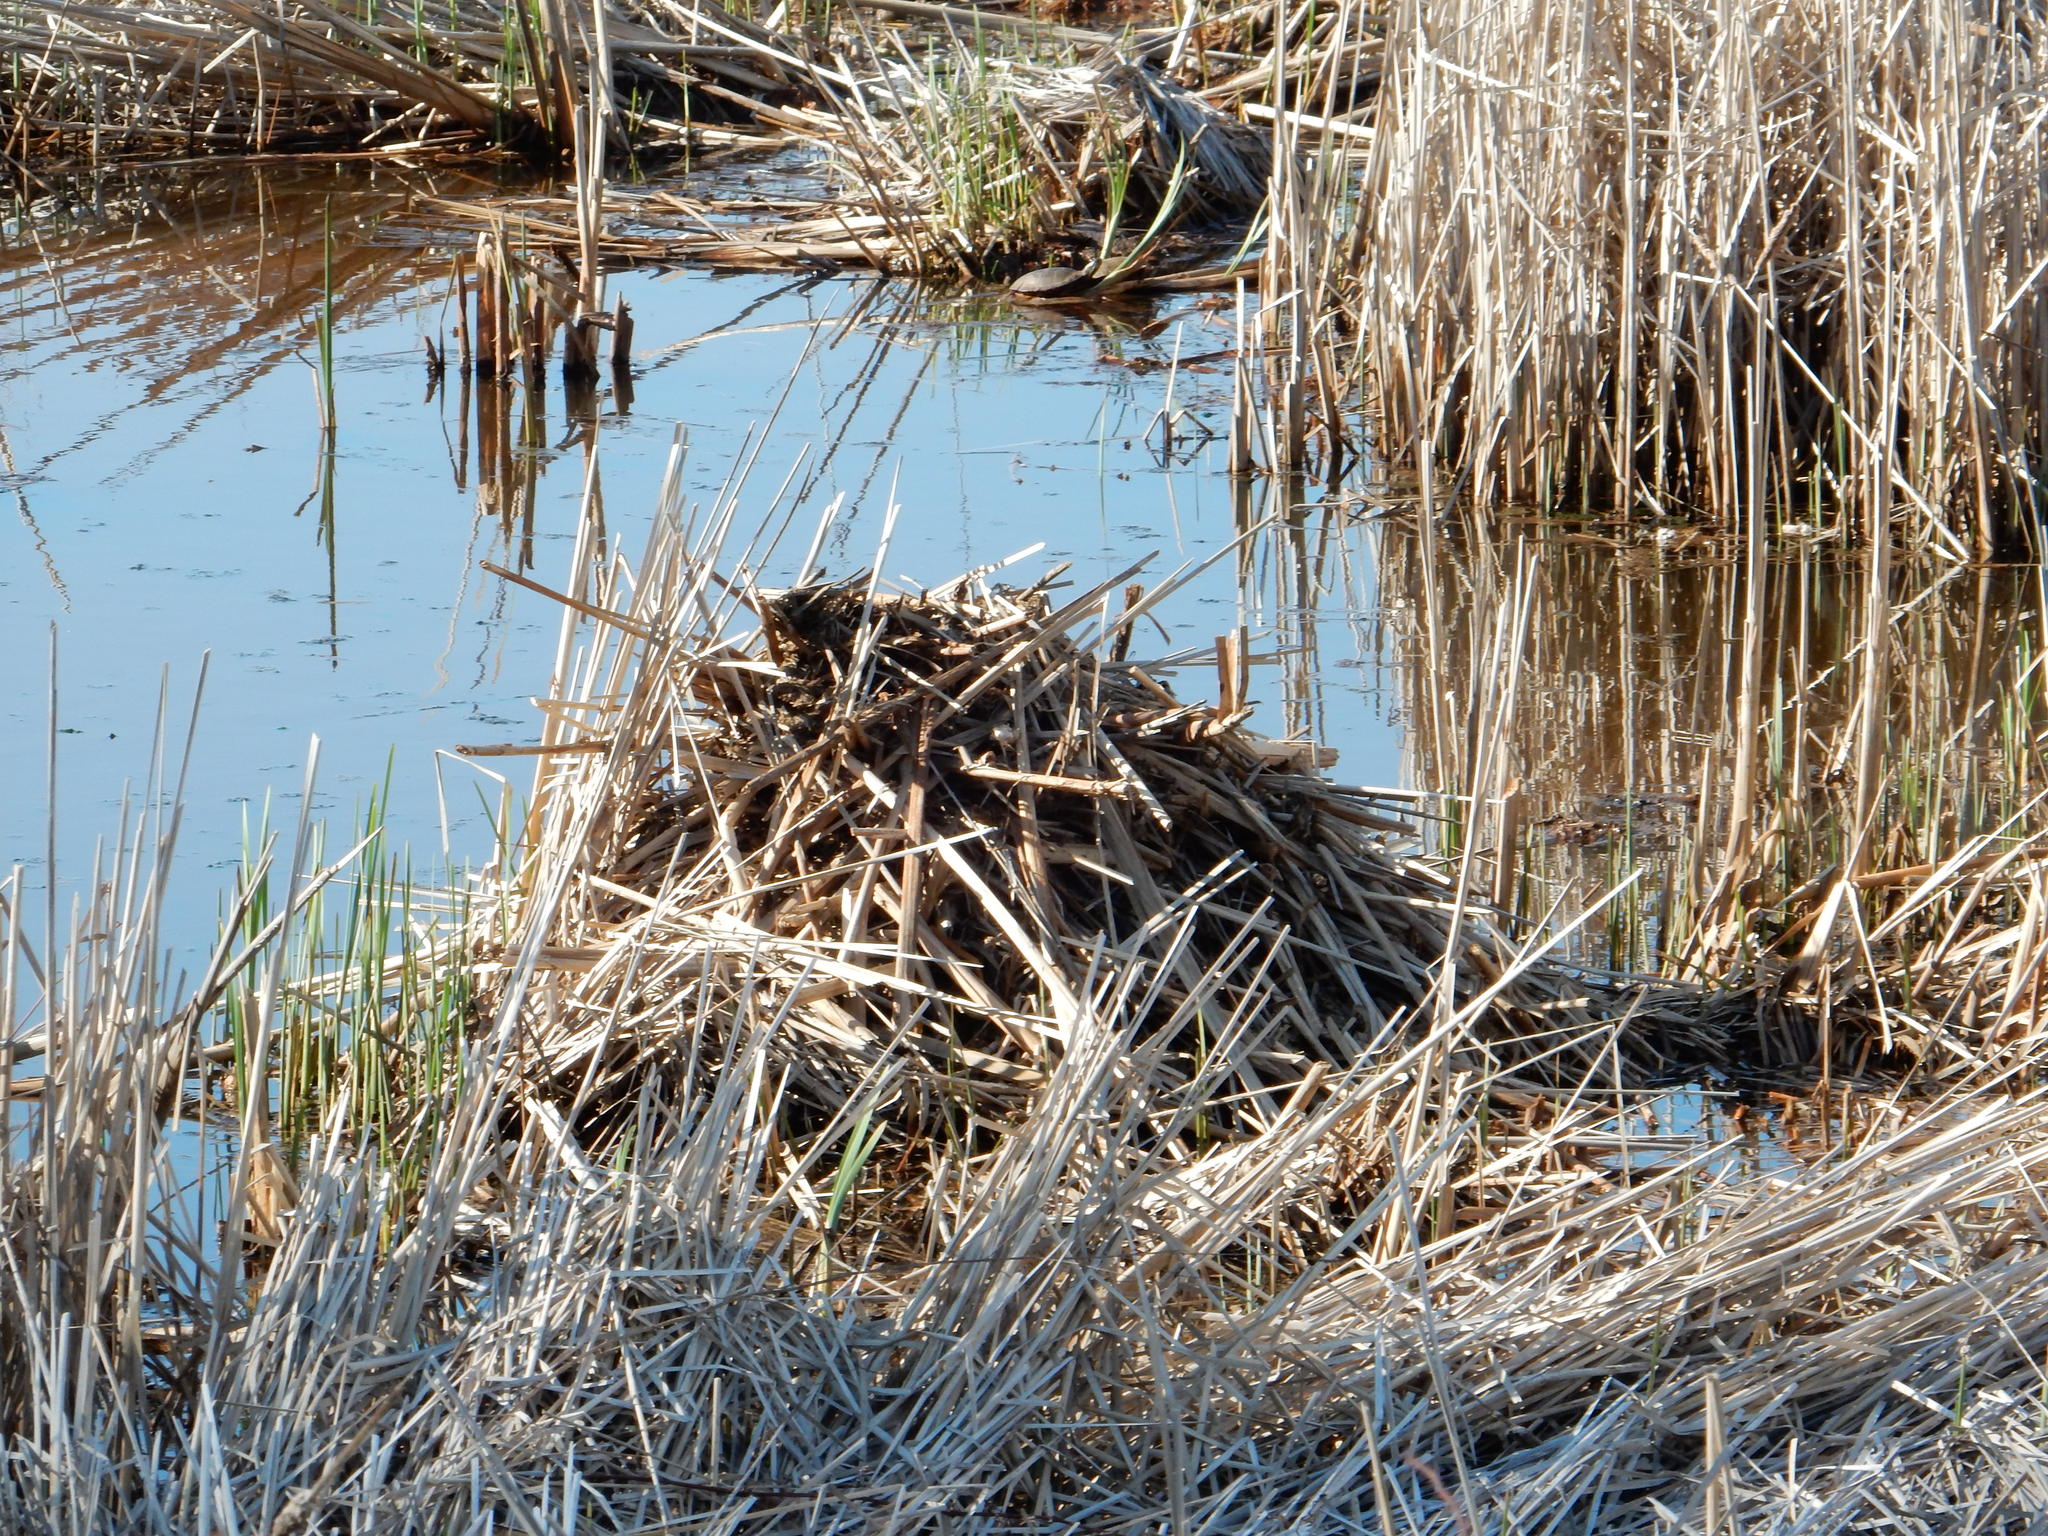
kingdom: Animalia
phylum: Chordata
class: Mammalia
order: Rodentia
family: Cricetidae
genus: Ondatra
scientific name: Ondatra zibethicus
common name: Muskrat
